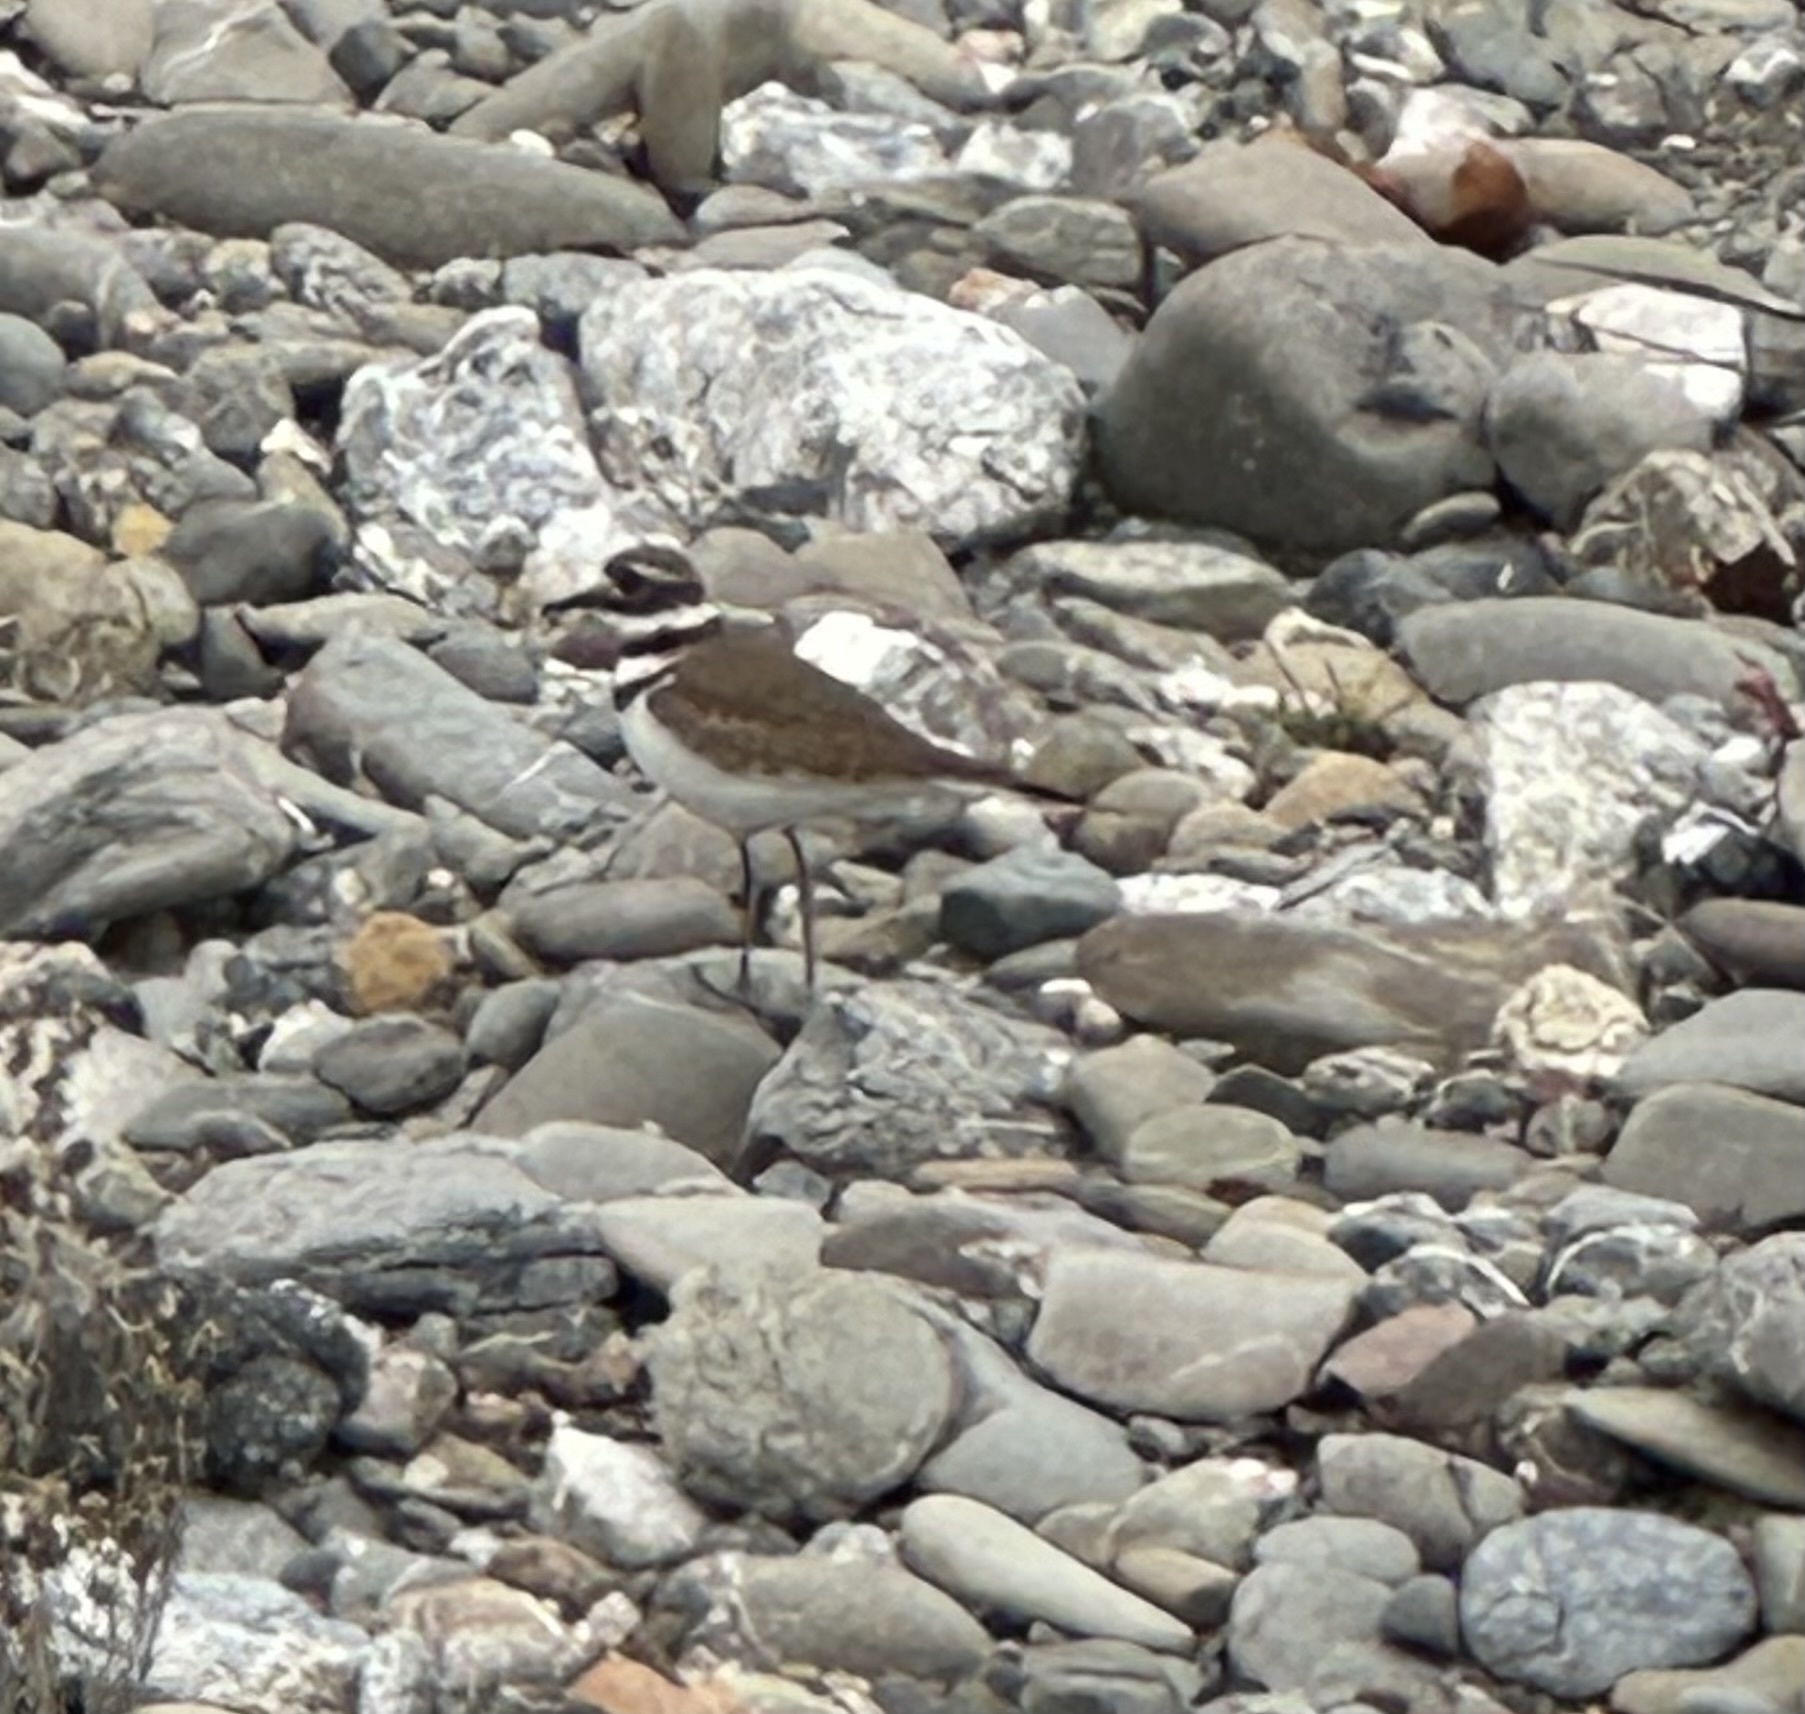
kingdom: Animalia
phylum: Chordata
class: Aves
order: Charadriiformes
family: Charadriidae
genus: Charadrius
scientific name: Charadrius vociferus
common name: Killdeer
